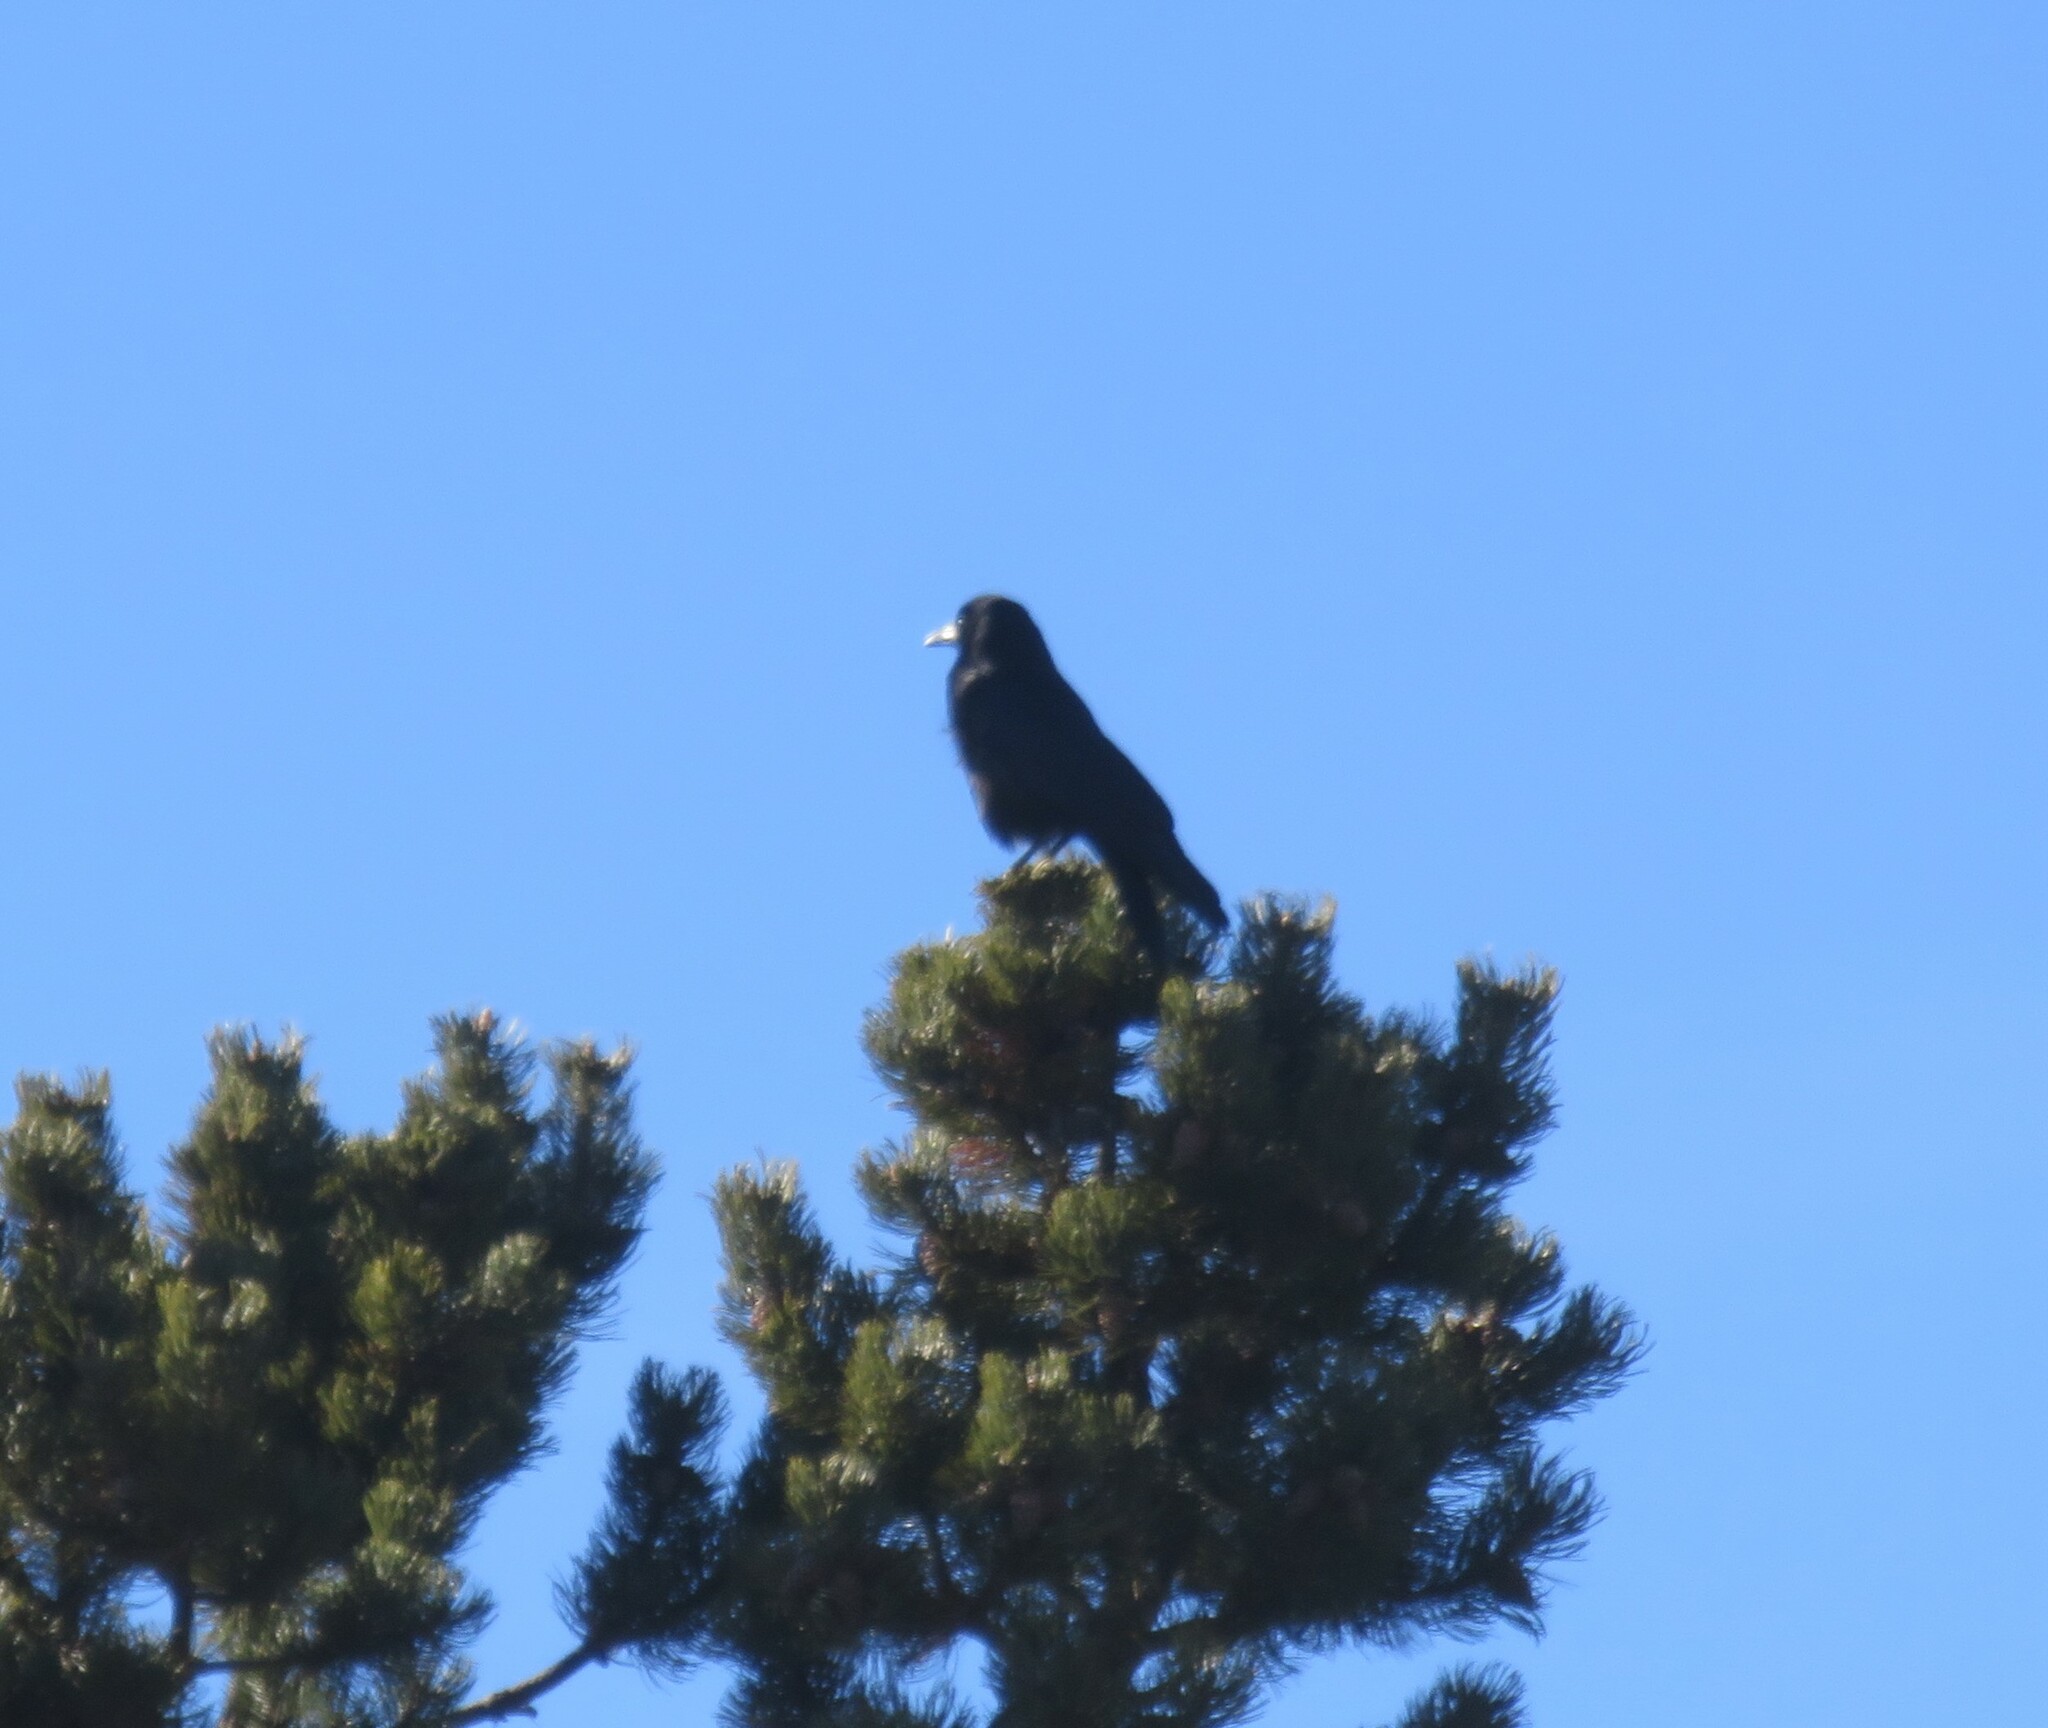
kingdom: Animalia
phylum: Chordata
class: Aves
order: Passeriformes
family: Corvidae
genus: Corvus
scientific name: Corvus frugilegus
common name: Rook
